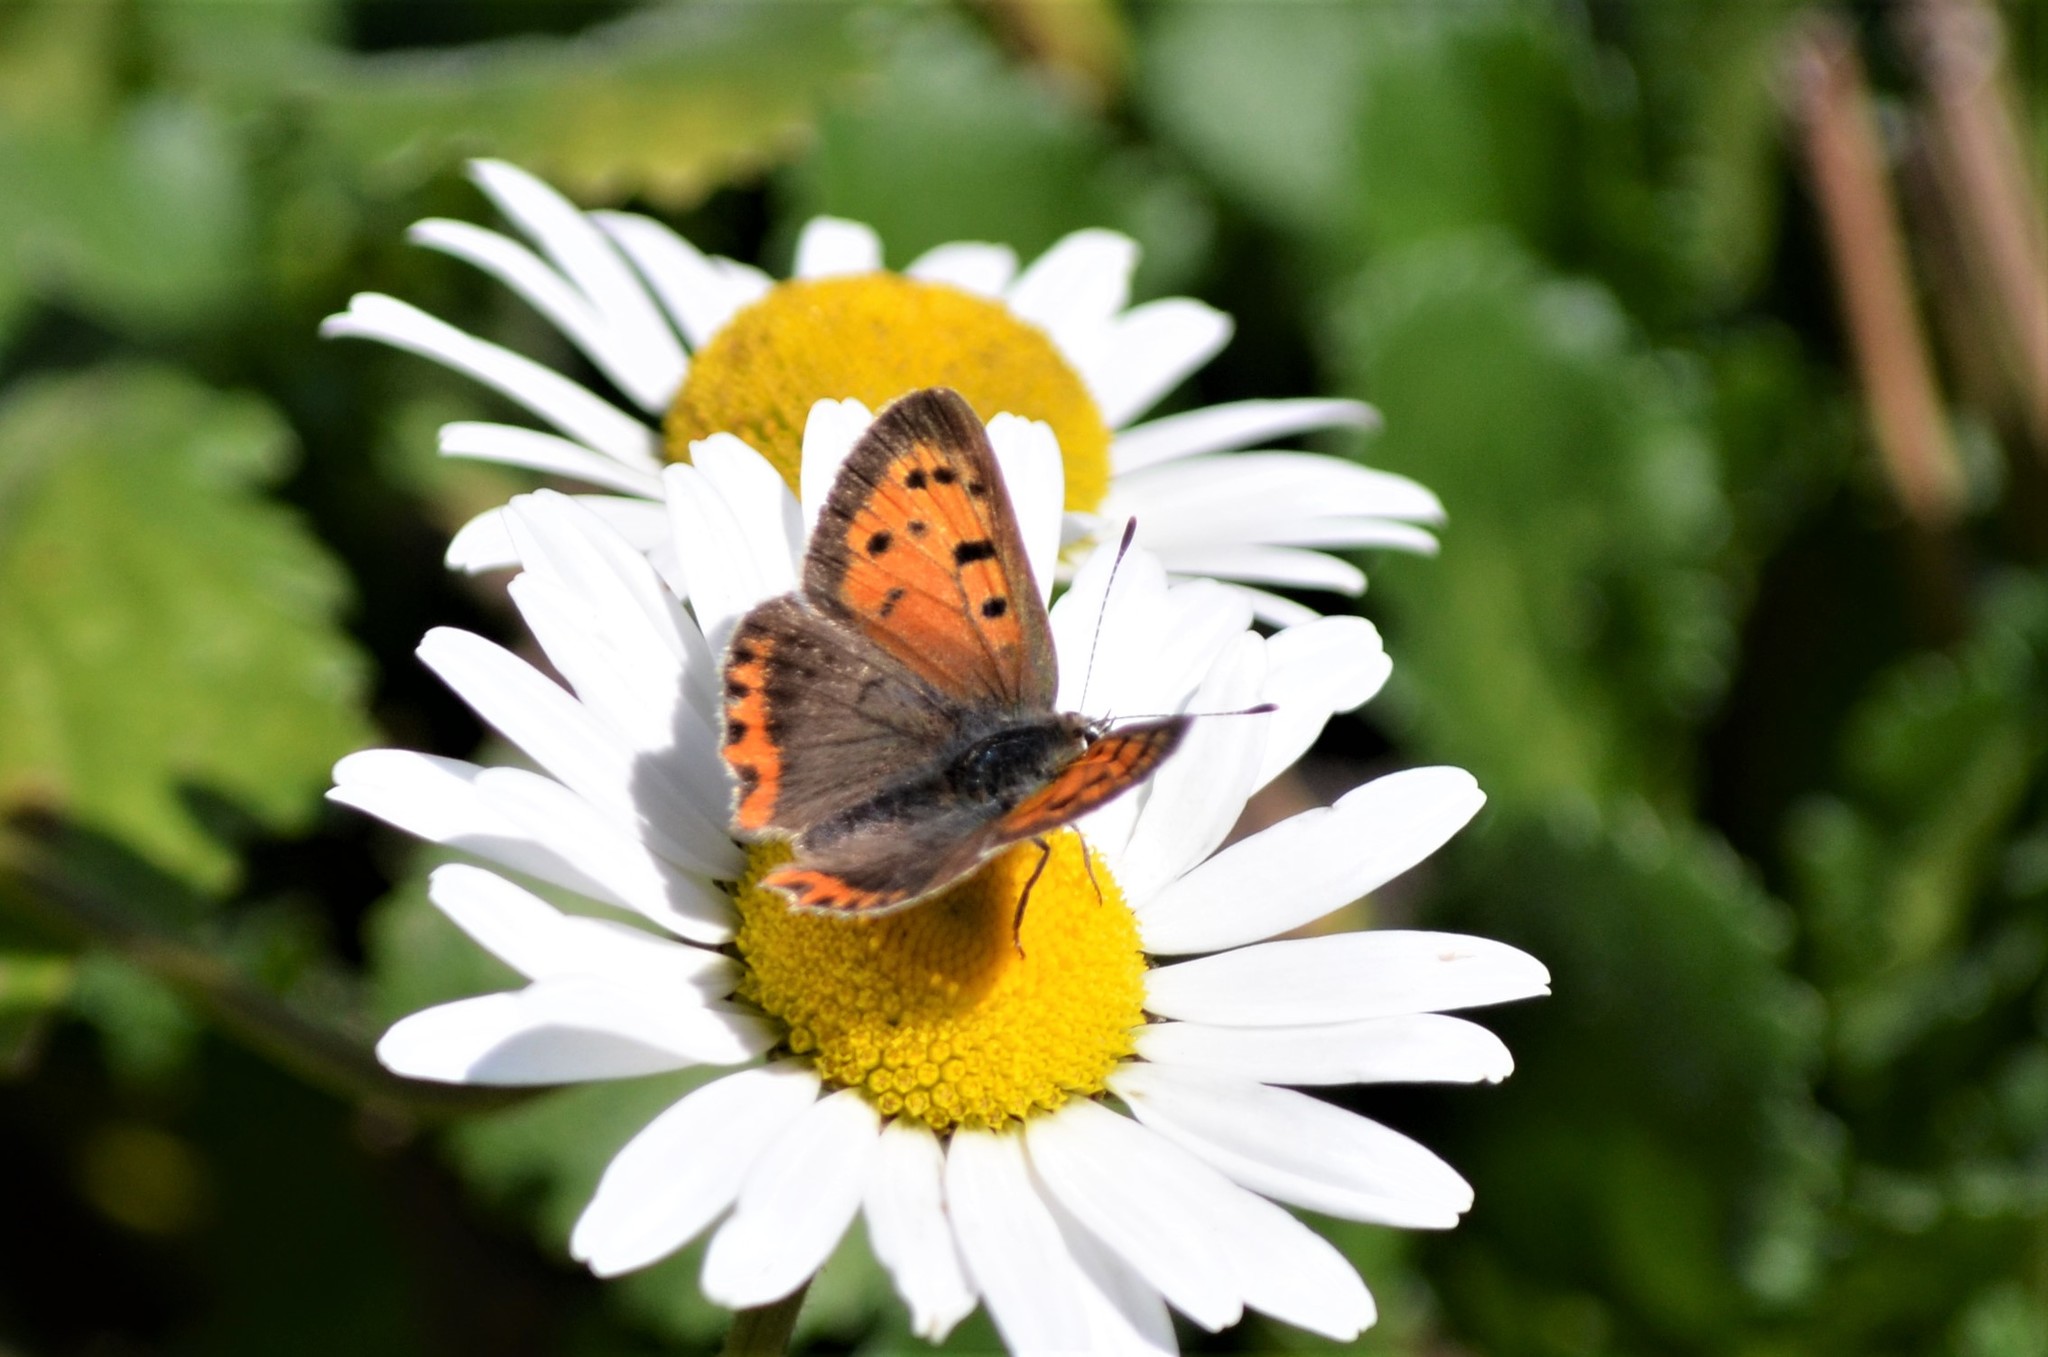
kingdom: Animalia
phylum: Arthropoda
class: Insecta
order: Lepidoptera
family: Lycaenidae
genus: Lycaena
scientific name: Lycaena phlaeas
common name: Small copper
